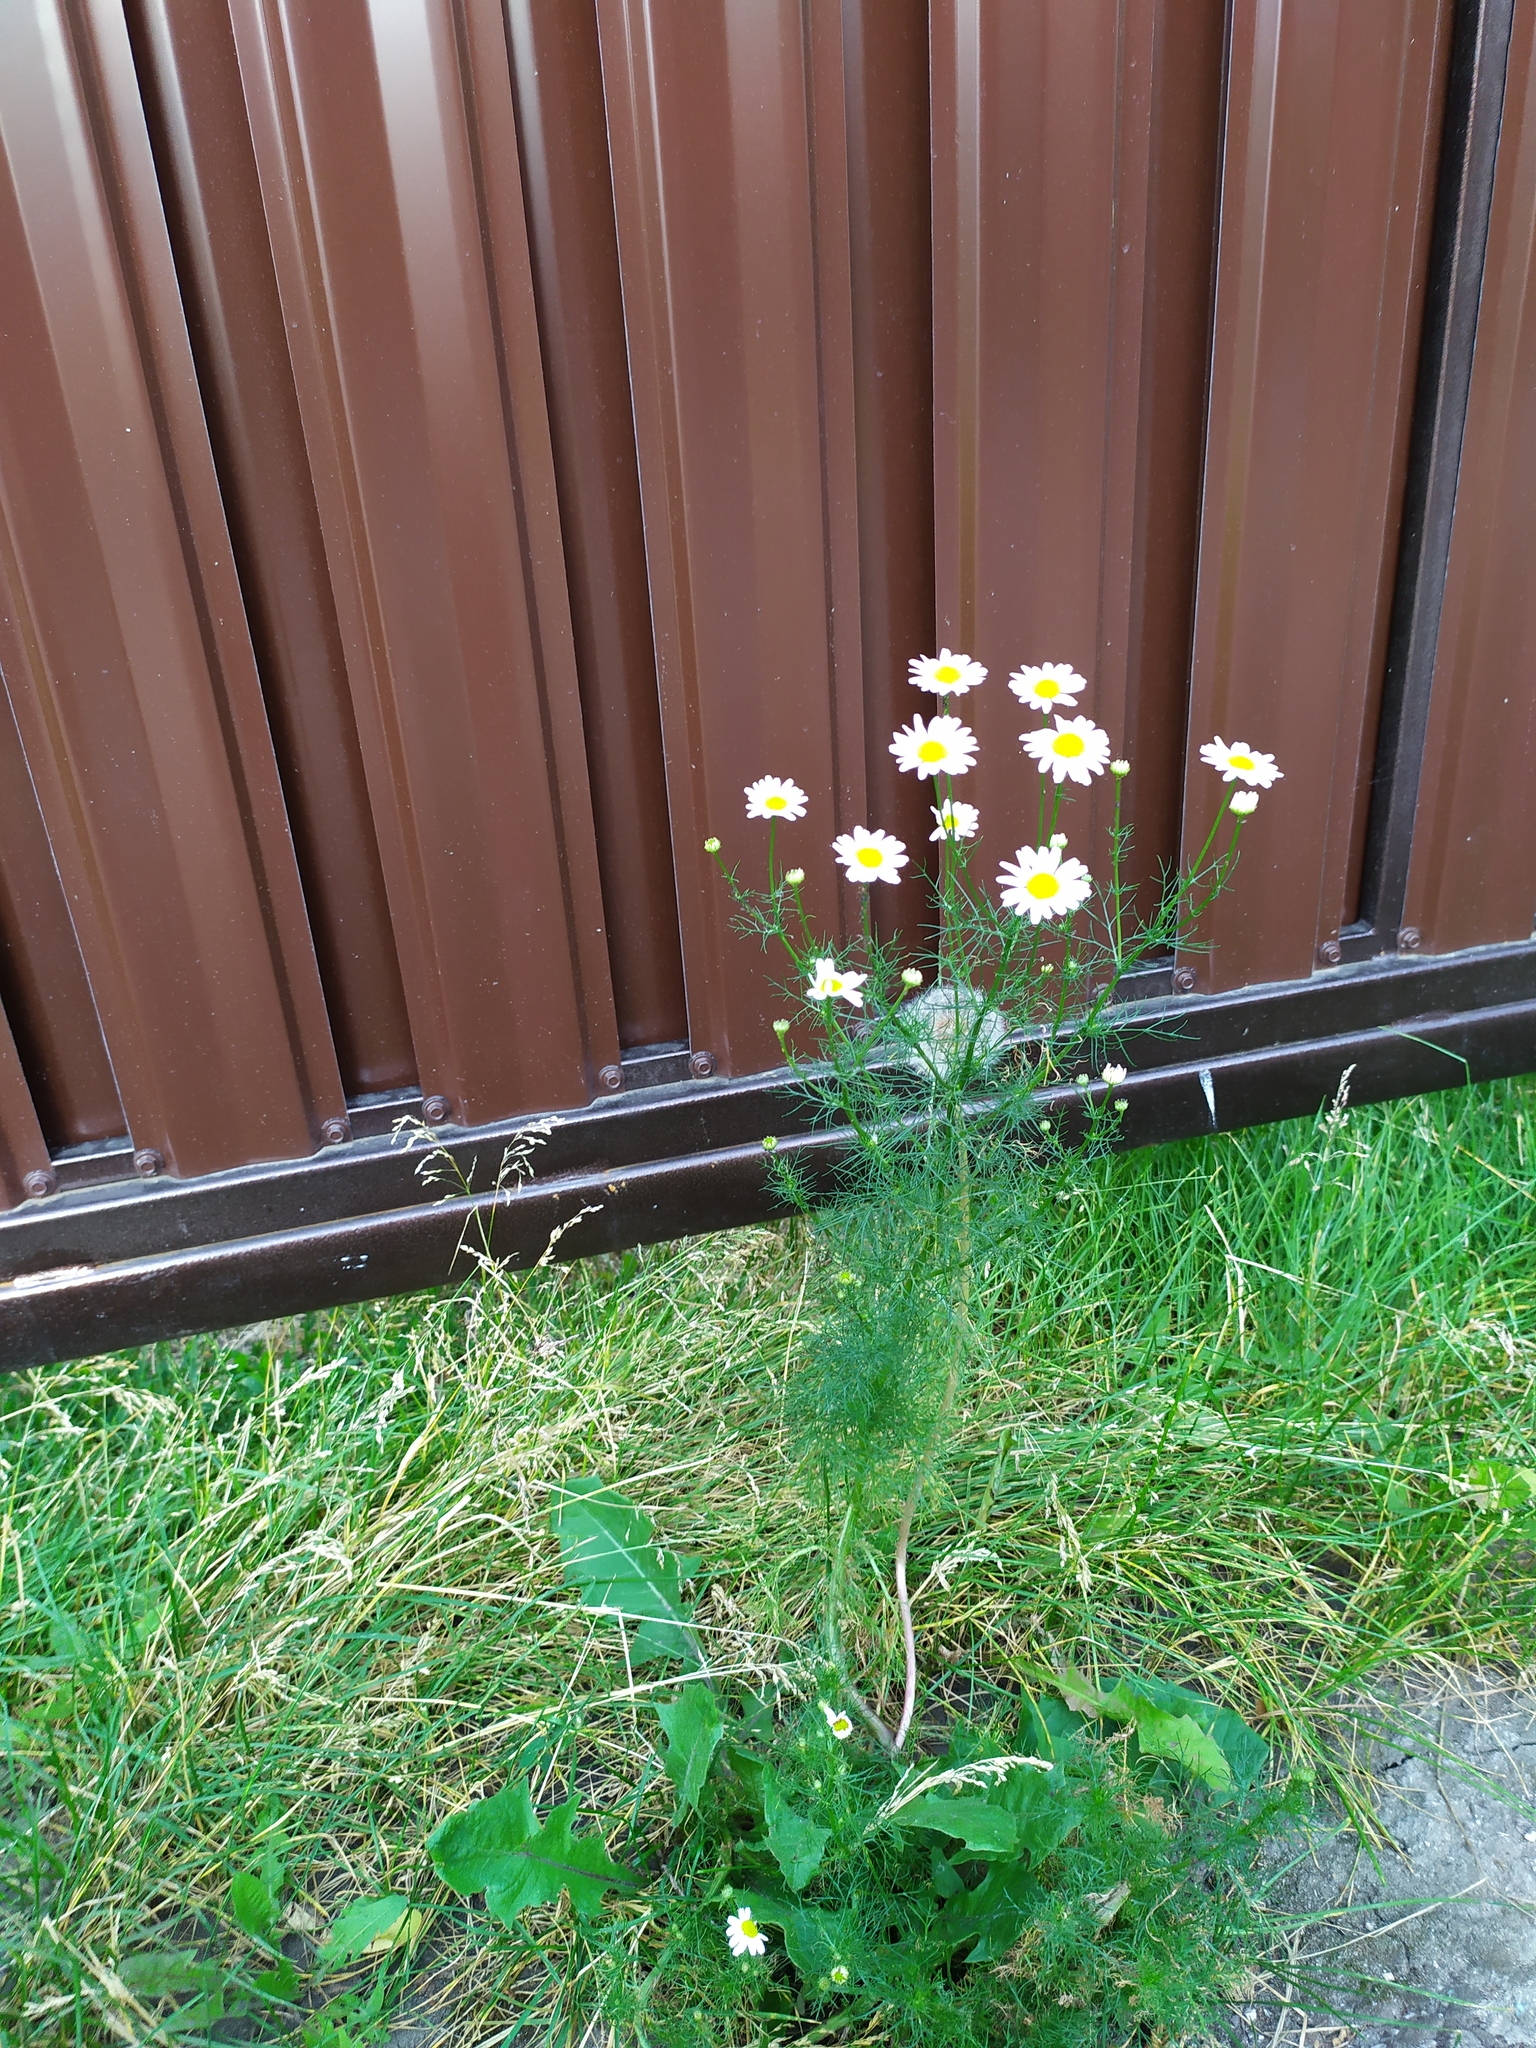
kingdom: Plantae
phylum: Tracheophyta
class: Magnoliopsida
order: Asterales
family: Asteraceae
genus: Tripleurospermum
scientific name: Tripleurospermum inodorum
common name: Scentless mayweed
